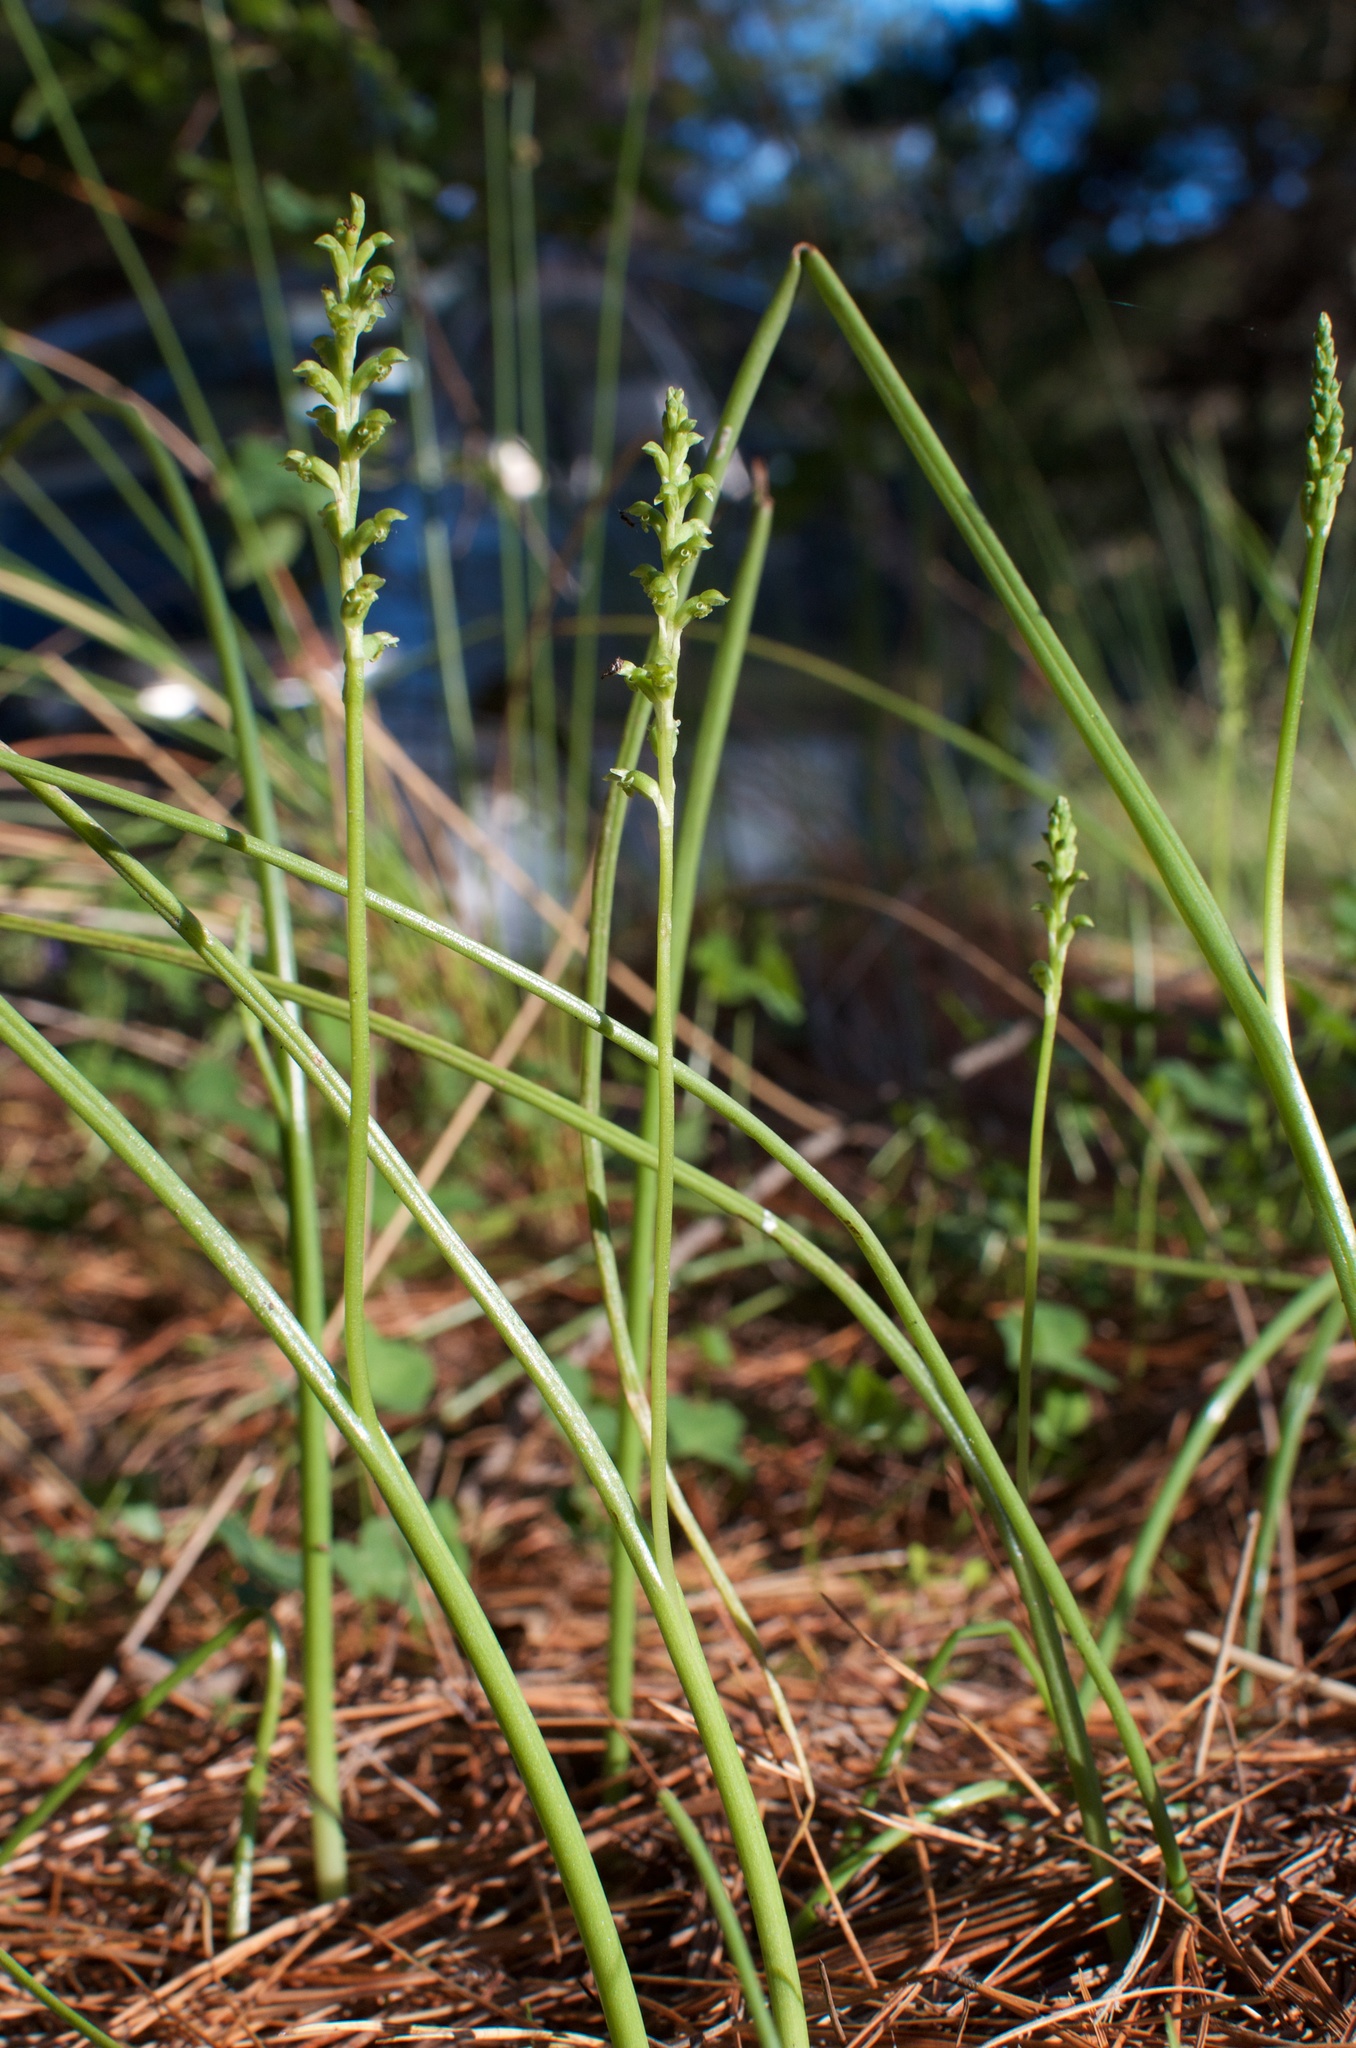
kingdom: Plantae
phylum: Tracheophyta
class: Liliopsida
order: Asparagales
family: Orchidaceae
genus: Microtis
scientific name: Microtis unifolia
